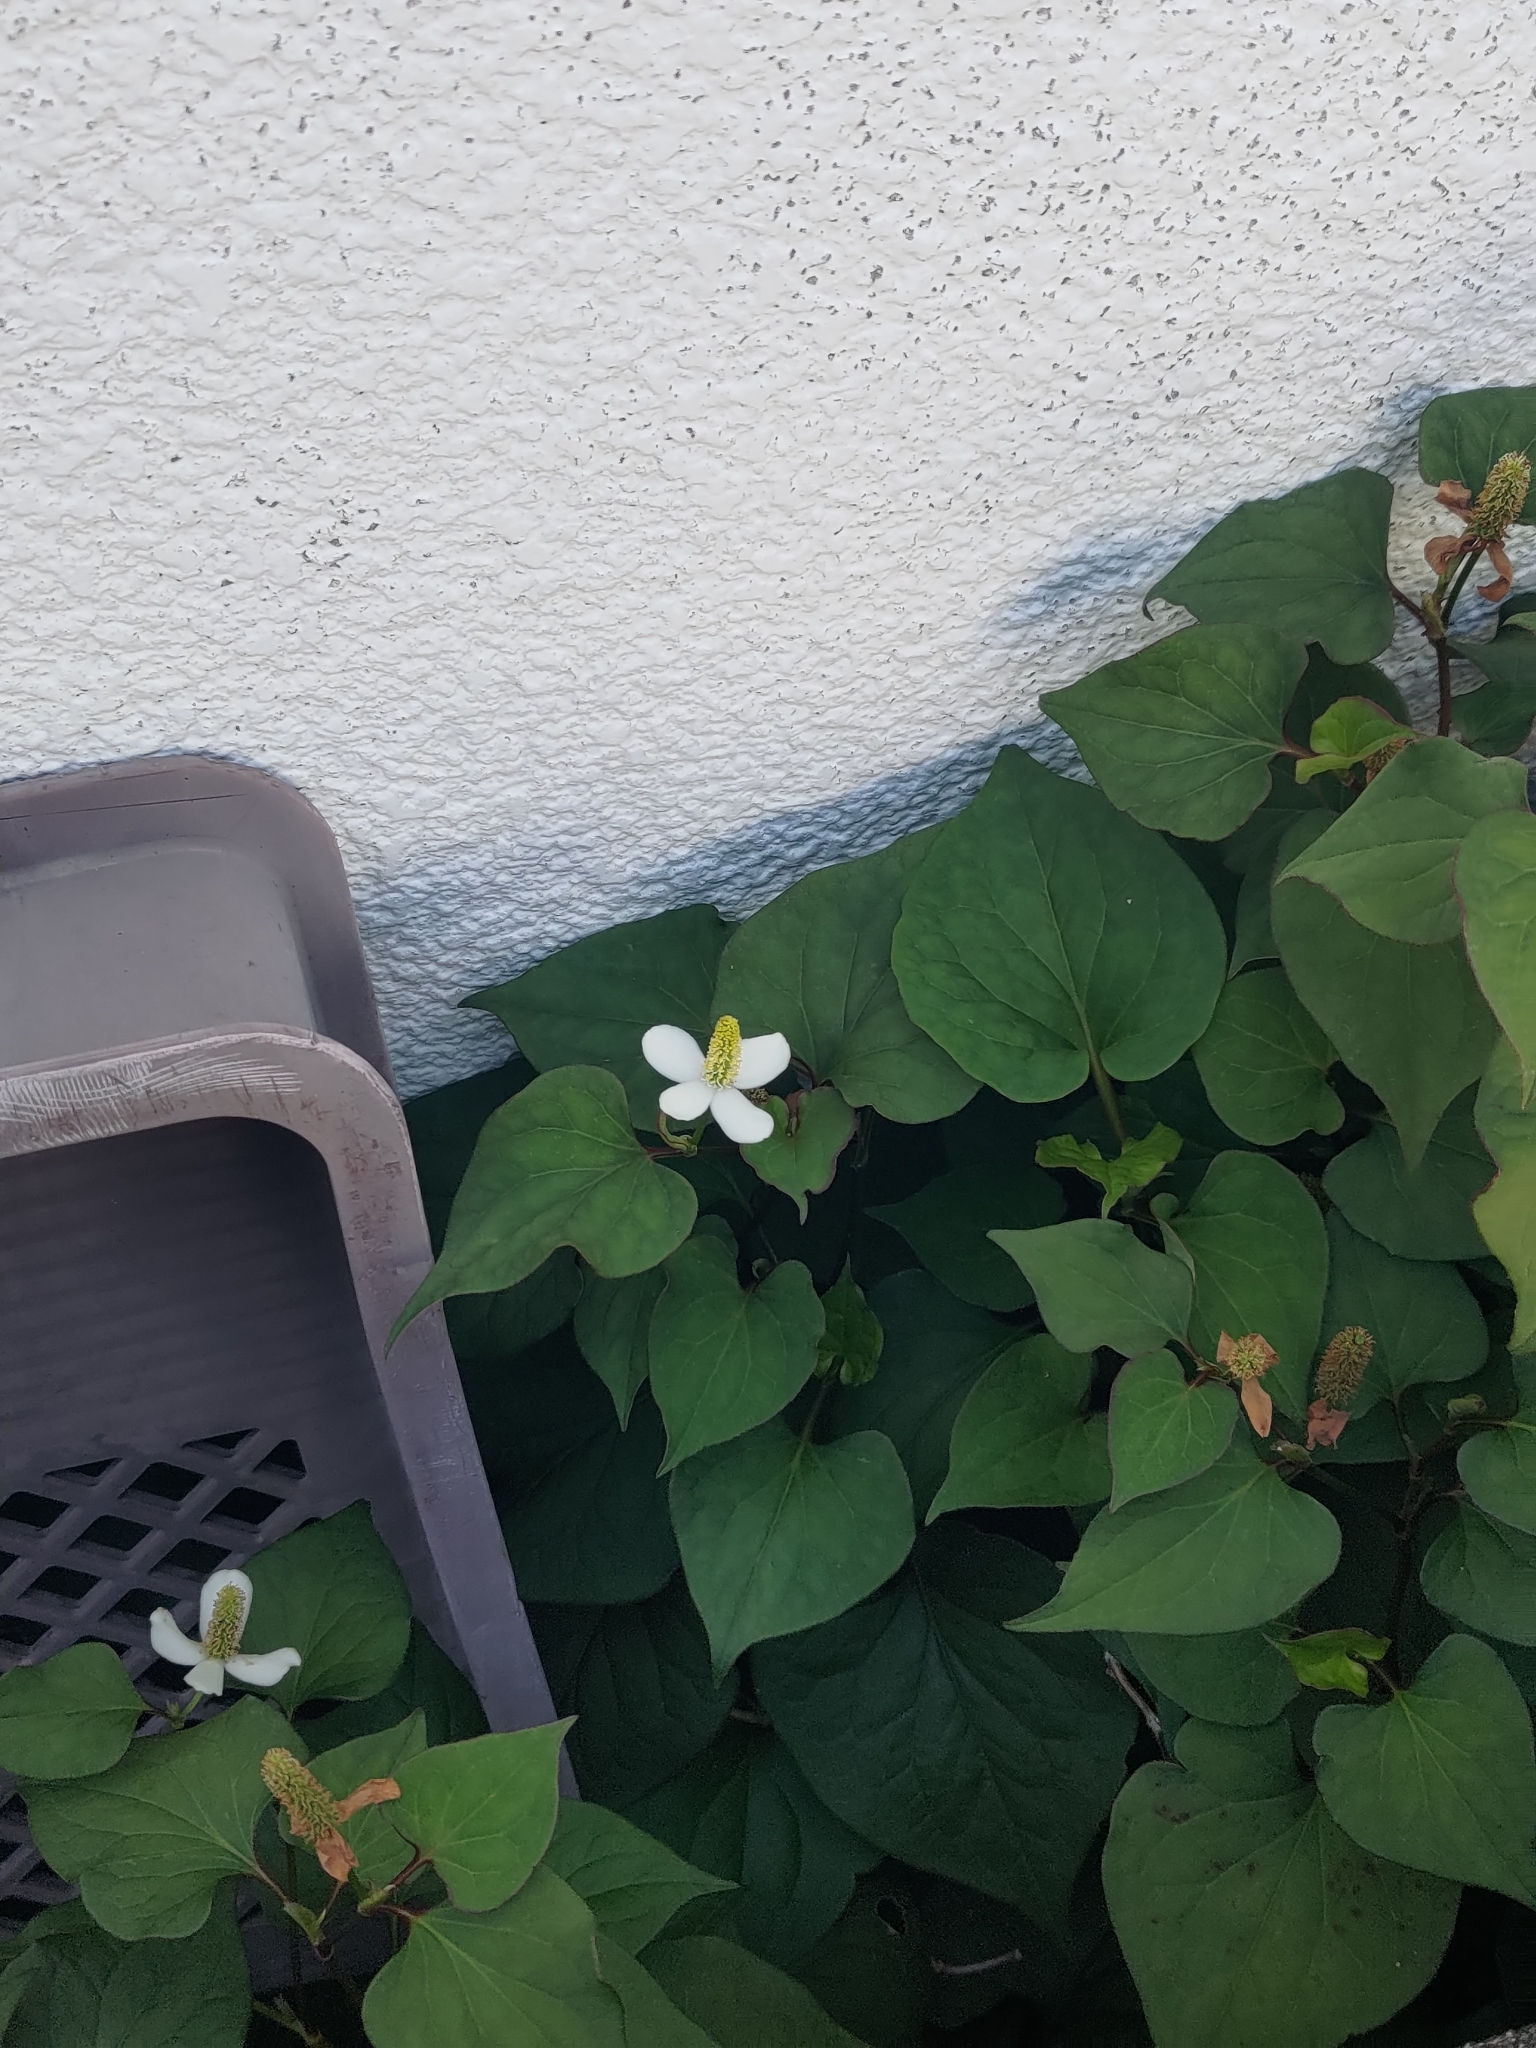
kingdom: Plantae
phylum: Tracheophyta
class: Magnoliopsida
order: Piperales
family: Saururaceae
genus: Houttuynia
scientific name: Houttuynia cordata
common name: Chameleon
